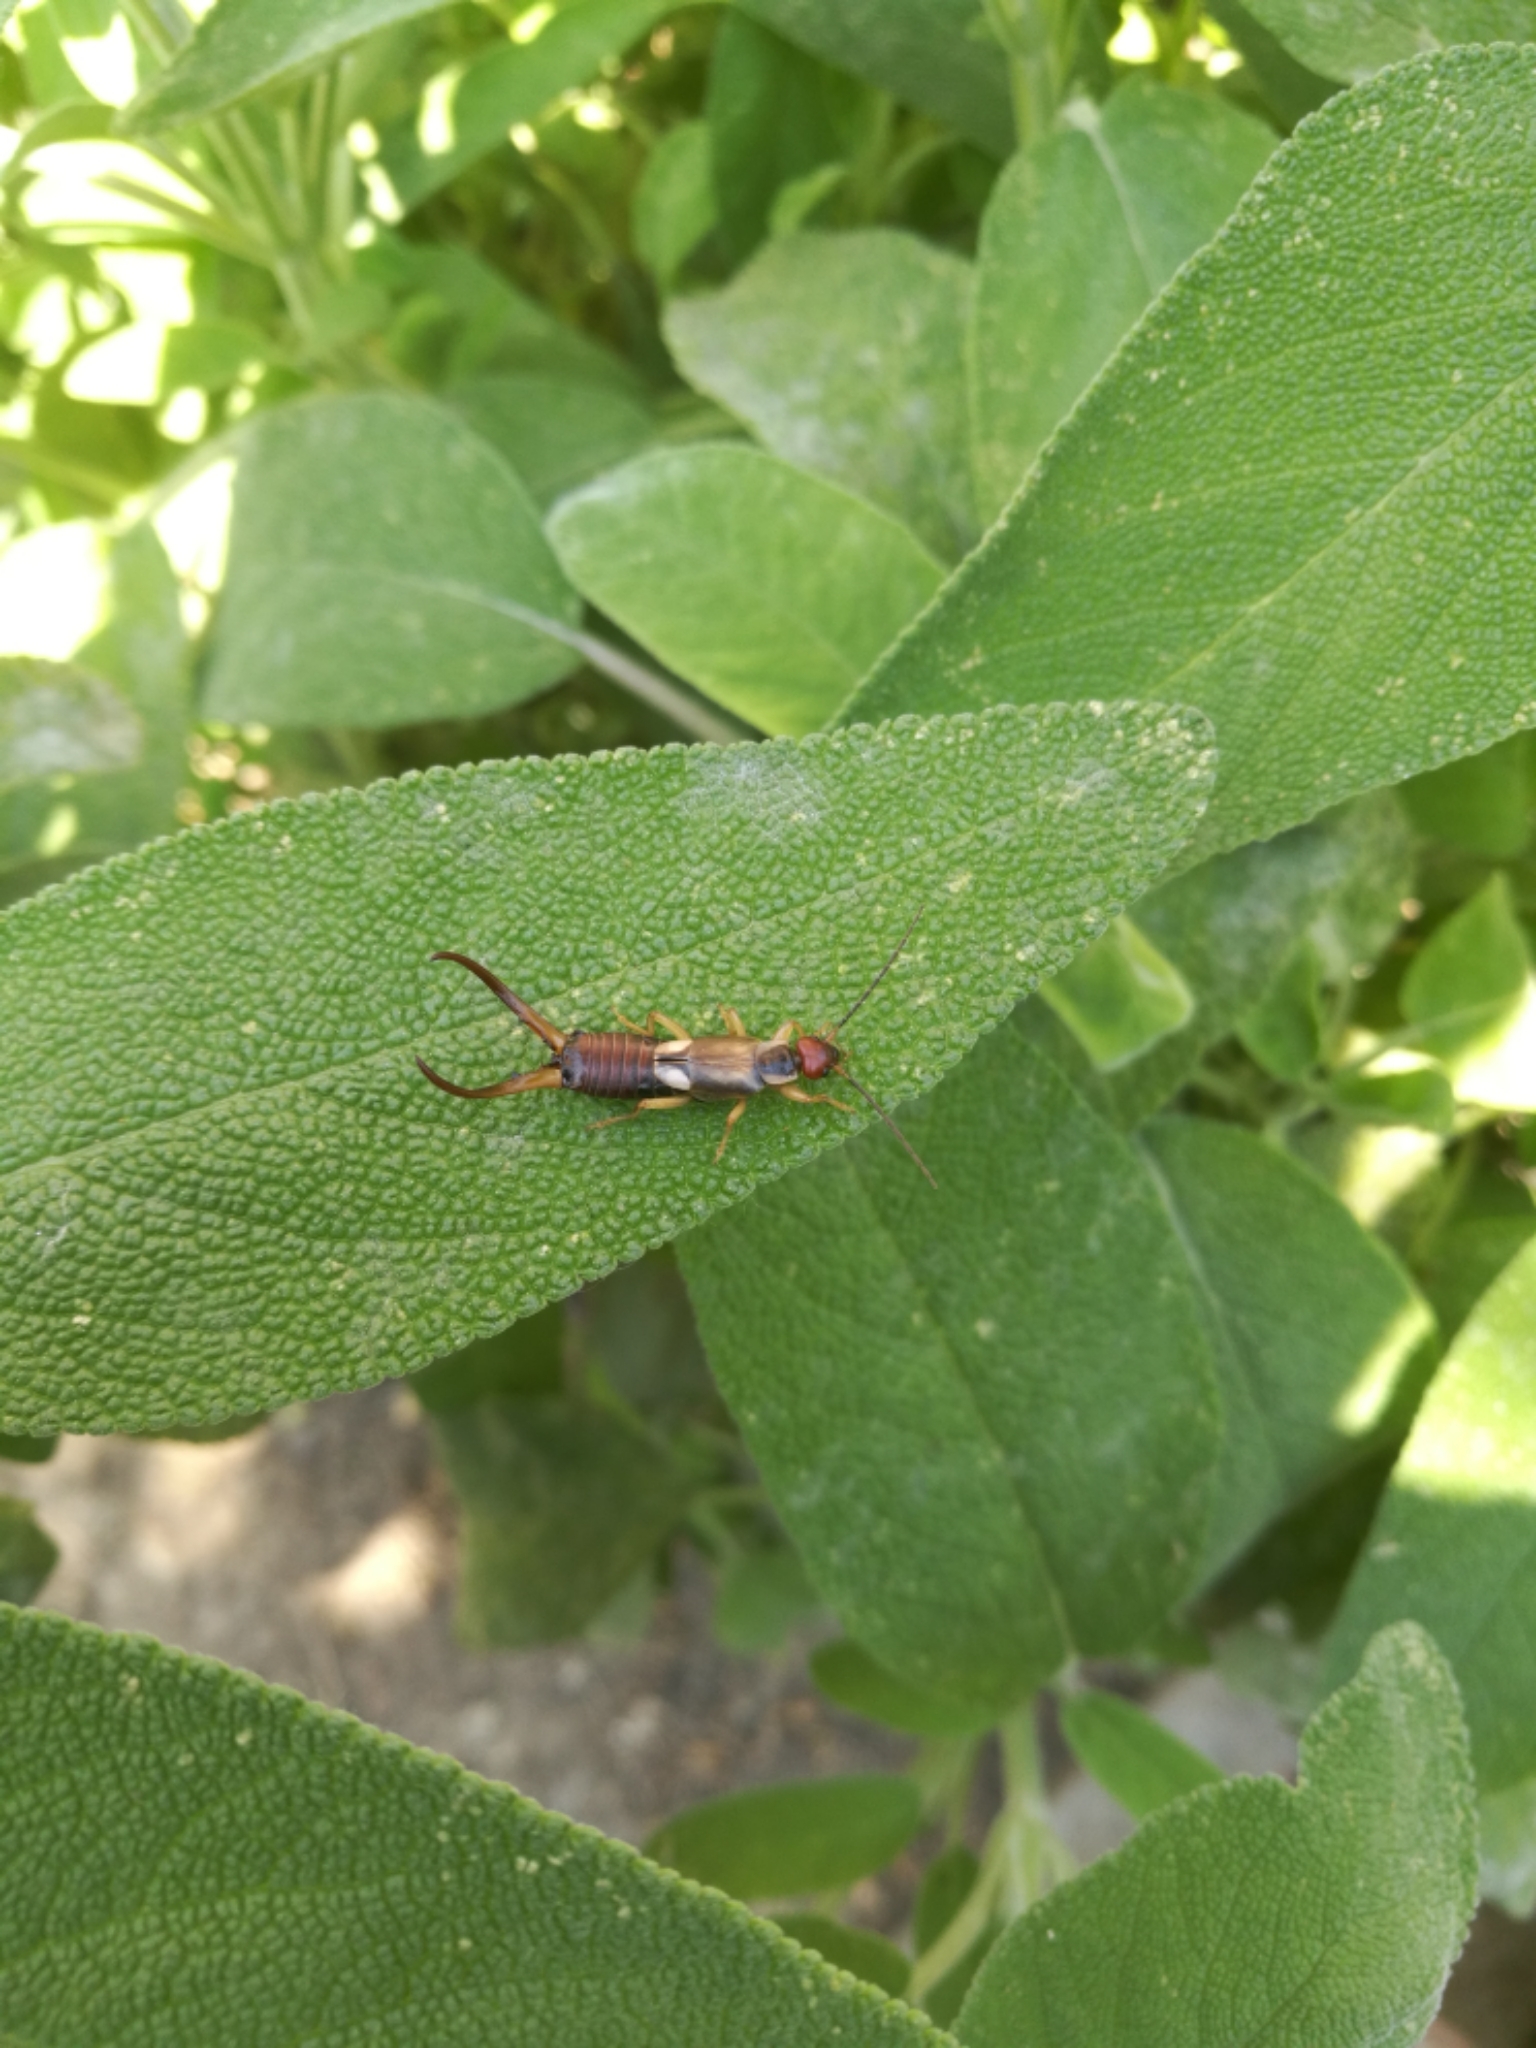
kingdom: Animalia
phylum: Arthropoda
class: Insecta
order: Dermaptera
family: Forficulidae
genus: Forficula
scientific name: Forficula
